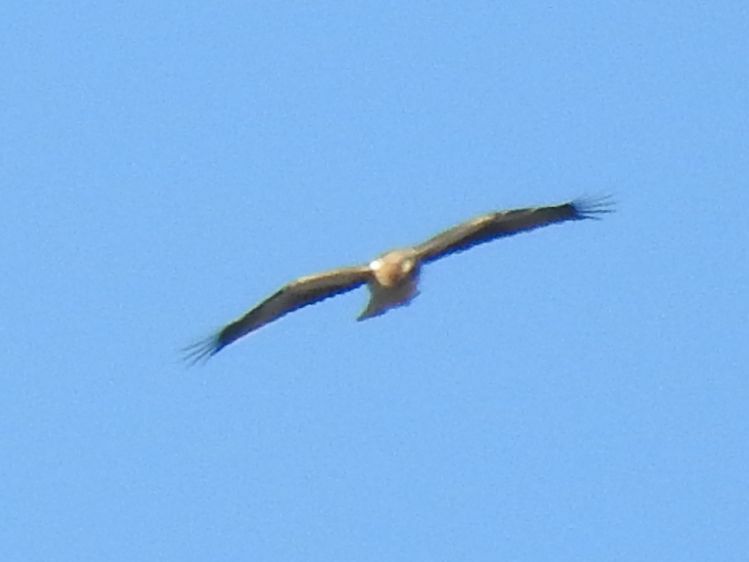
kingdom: Animalia
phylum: Chordata
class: Aves
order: Accipitriformes
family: Accipitridae
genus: Hieraaetus
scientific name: Hieraaetus pennatus
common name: Booted eagle
